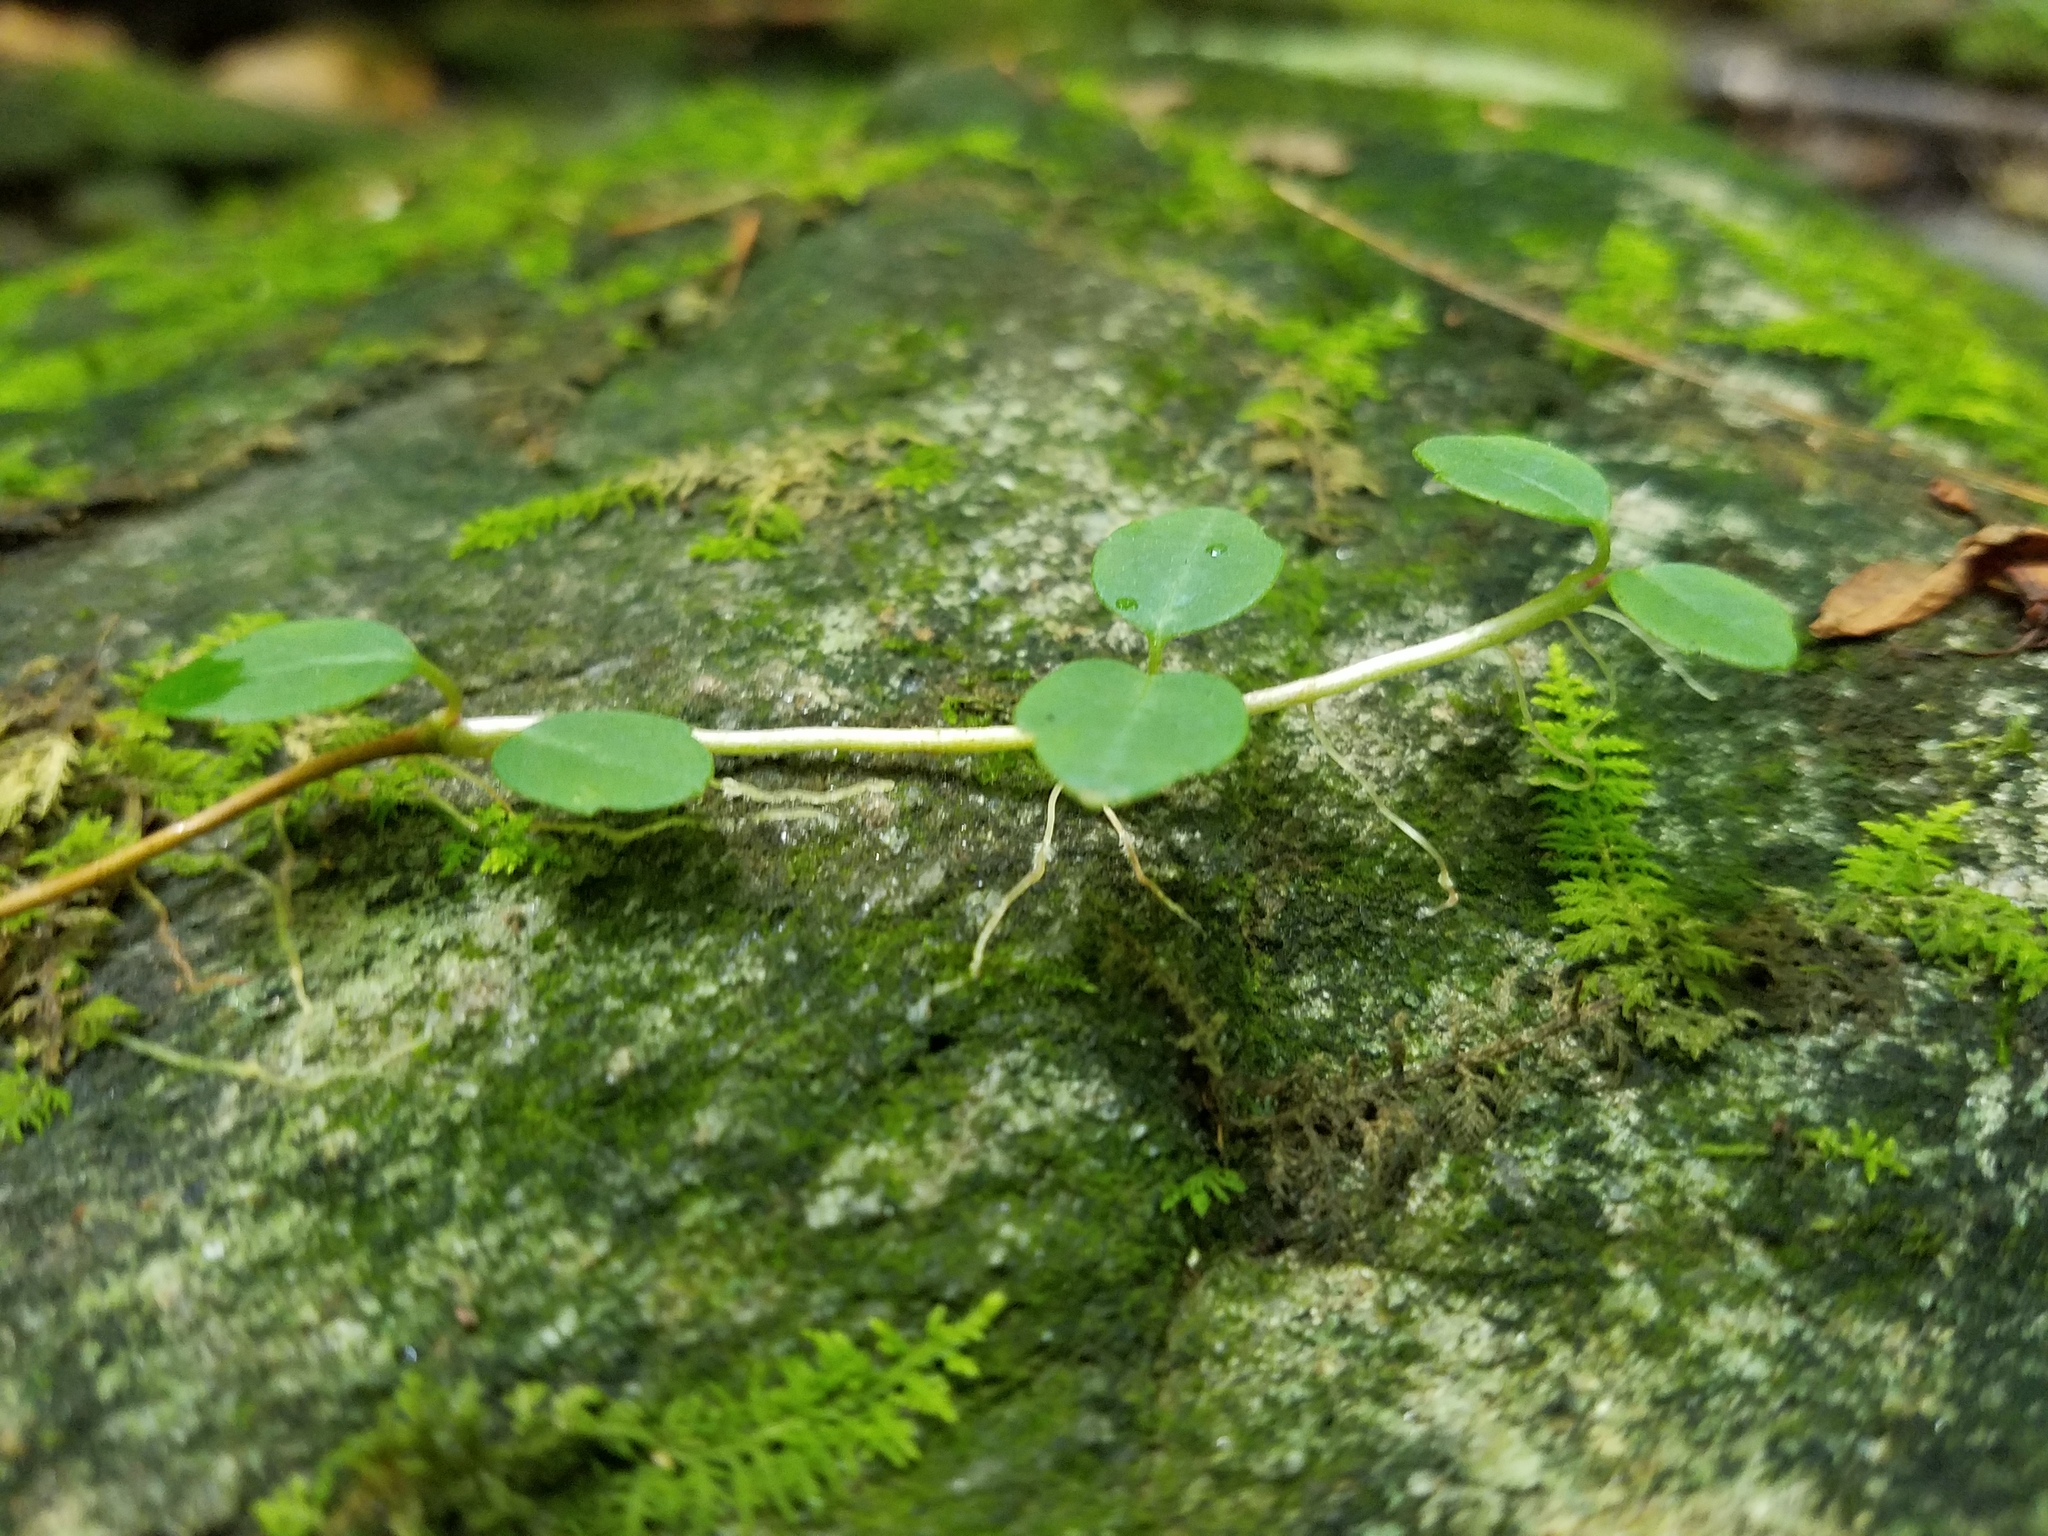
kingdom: Plantae
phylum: Tracheophyta
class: Magnoliopsida
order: Cornales
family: Hydrangeaceae
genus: Hydrangea
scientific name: Hydrangea barbara
